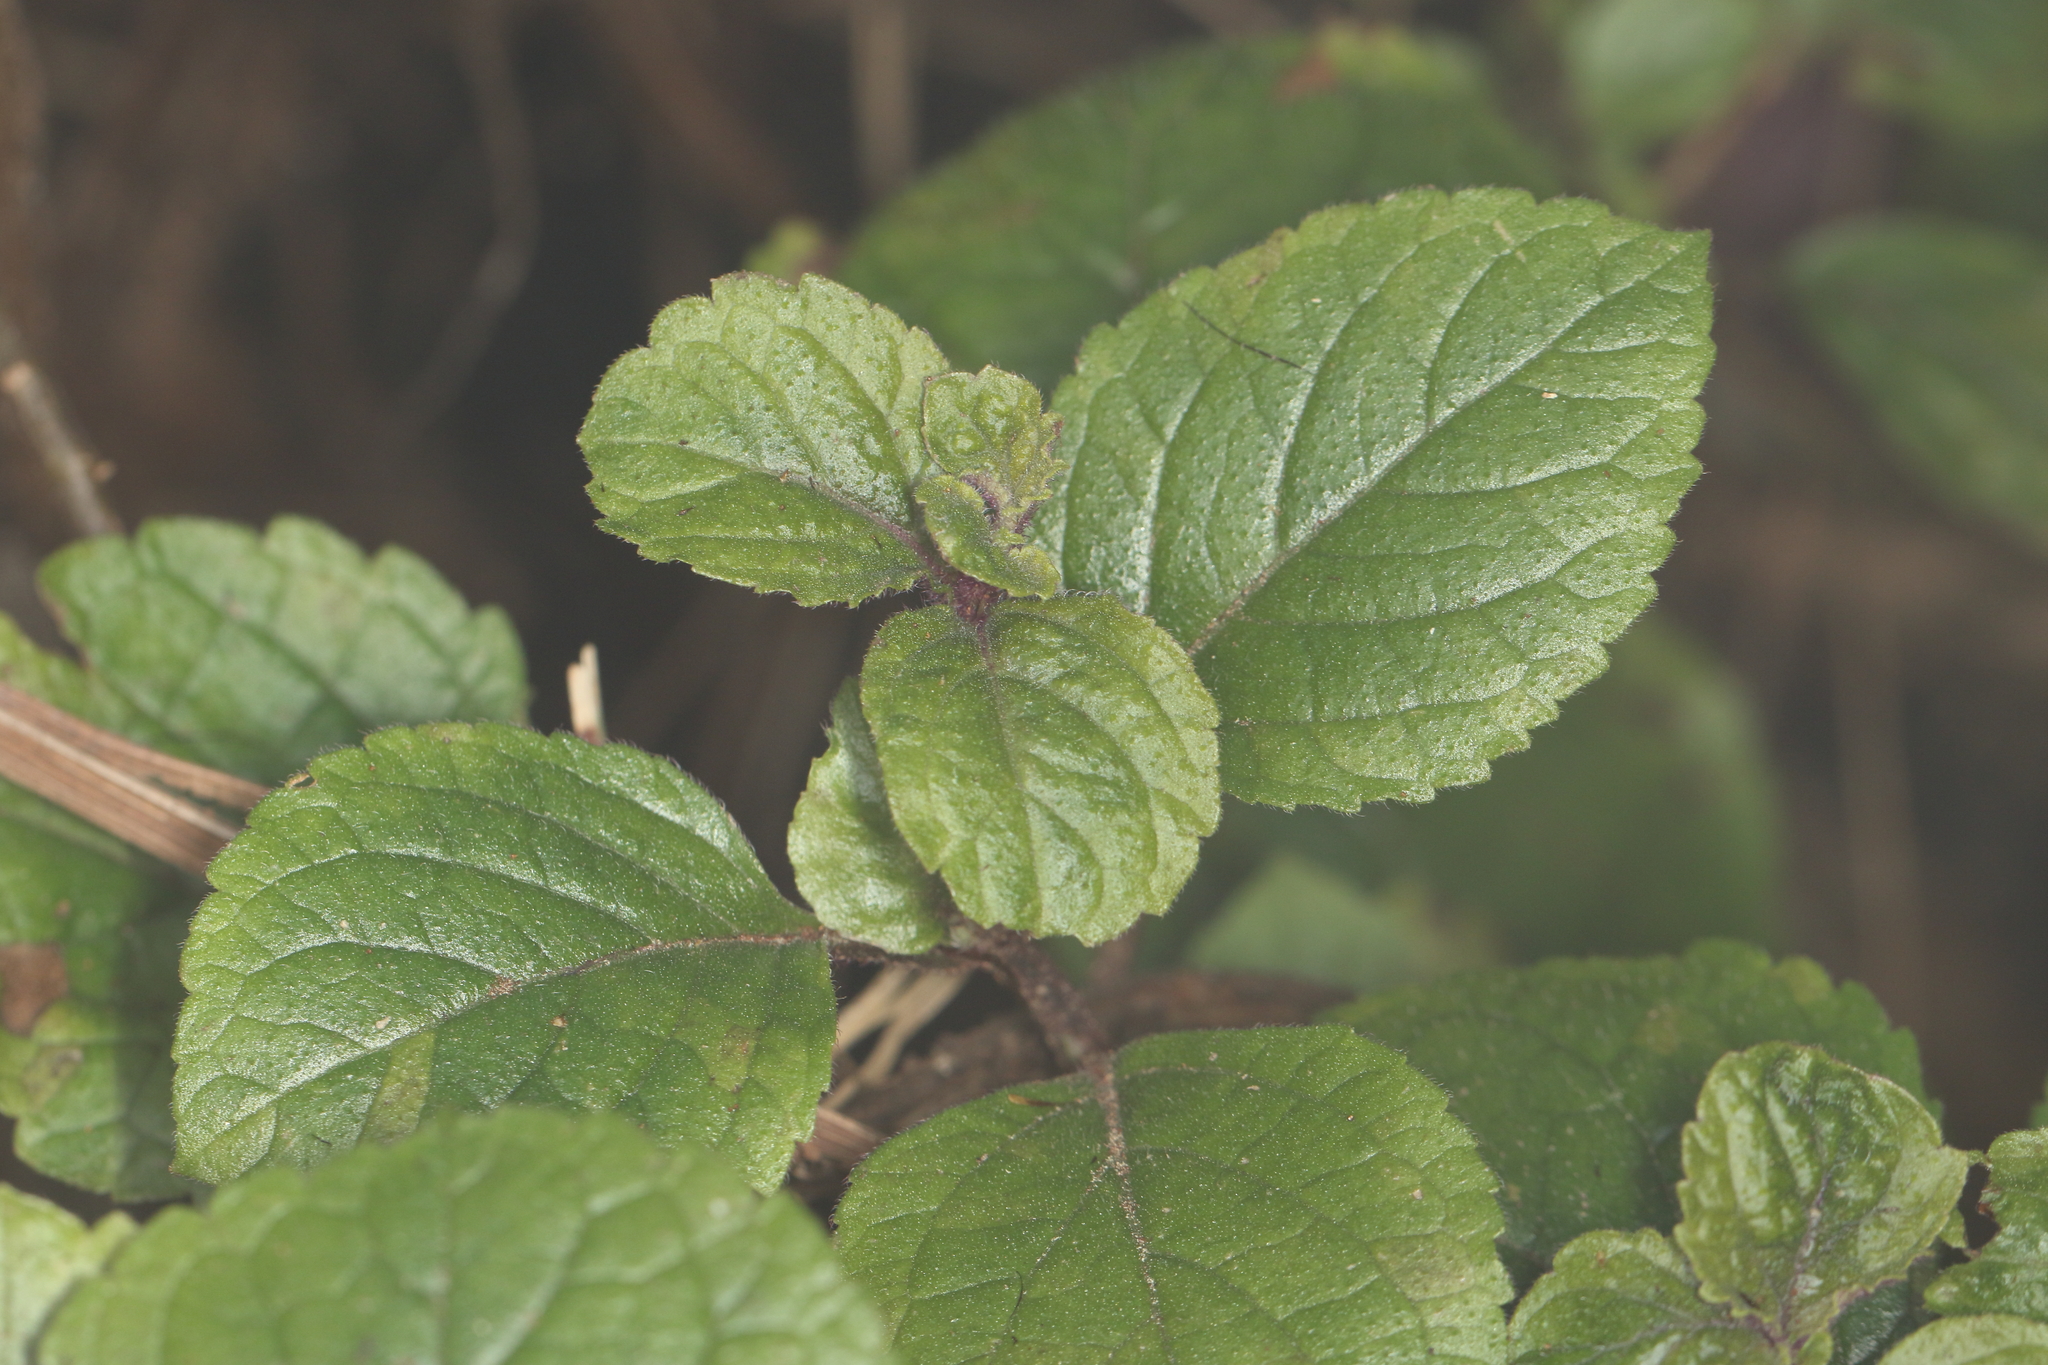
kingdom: Plantae
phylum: Tracheophyta
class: Magnoliopsida
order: Lamiales
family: Lamiaceae
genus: Plectranthus
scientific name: Plectranthus ciliatus
